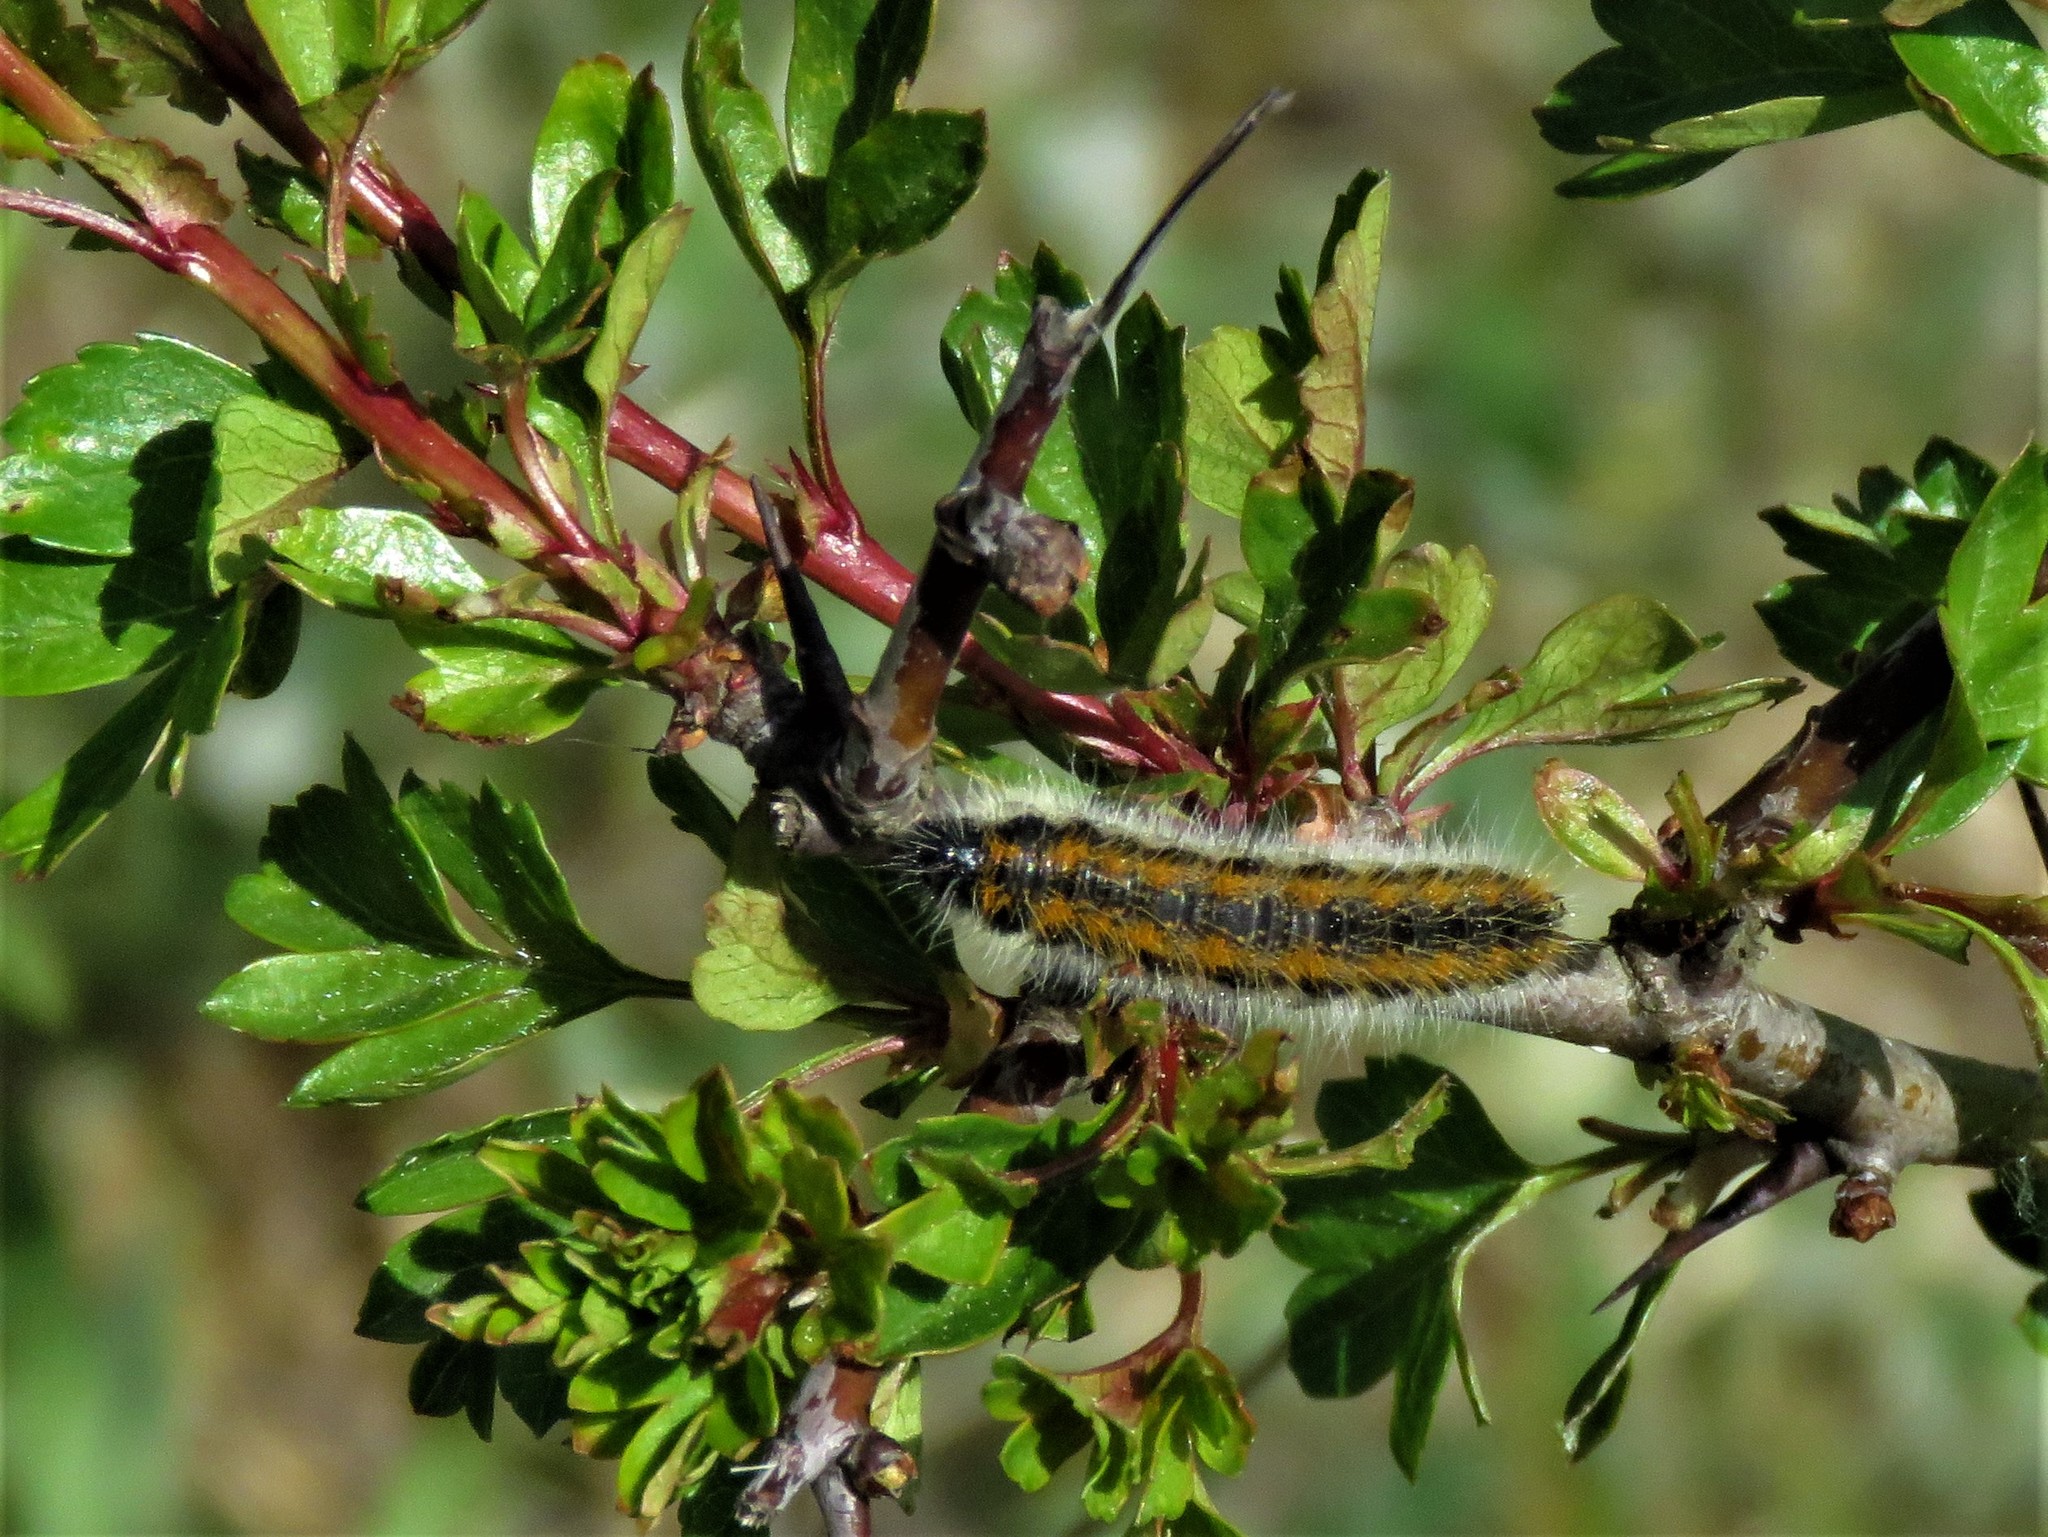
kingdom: Animalia
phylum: Arthropoda
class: Insecta
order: Lepidoptera
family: Pieridae
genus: Aporia
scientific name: Aporia crataegi
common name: Black-veined white
